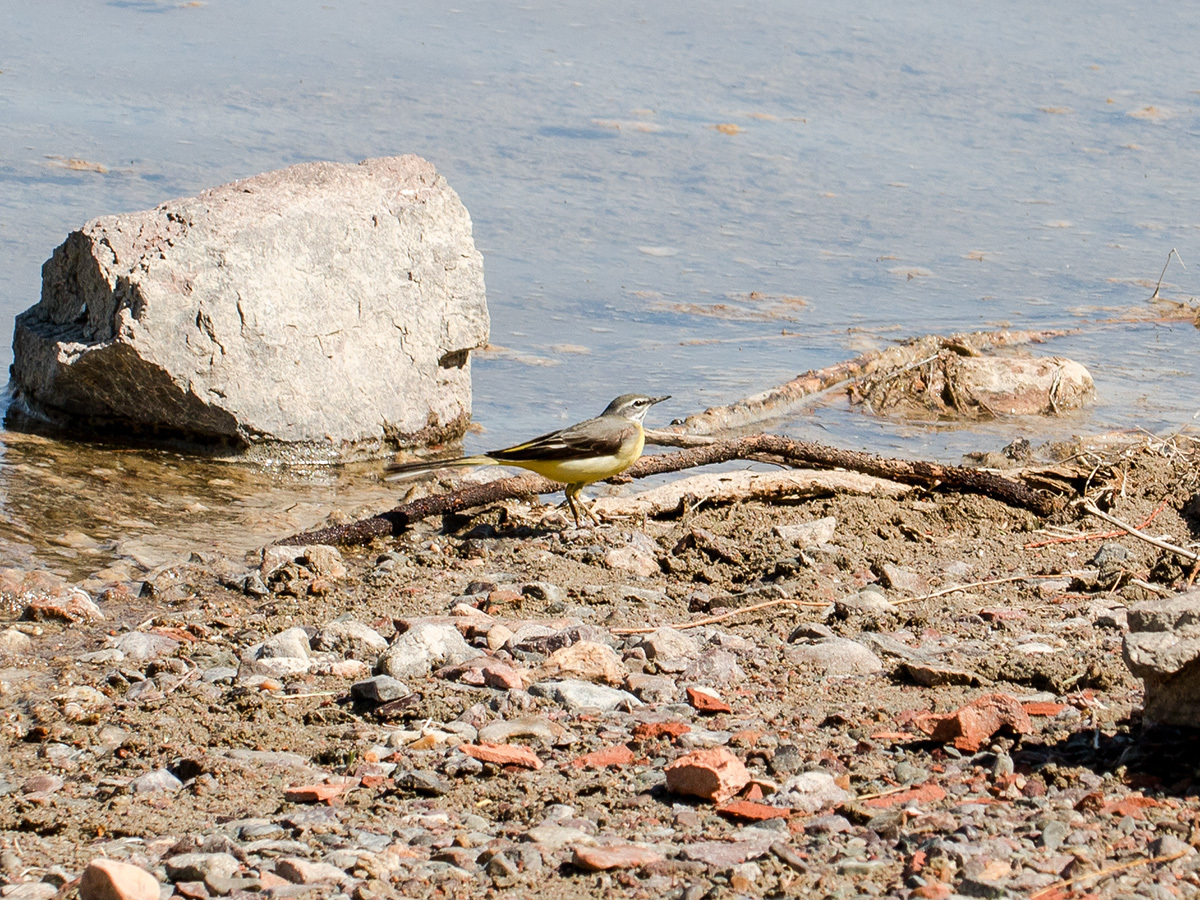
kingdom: Animalia
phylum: Chordata
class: Aves
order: Passeriformes
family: Motacillidae
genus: Motacilla
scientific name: Motacilla cinerea
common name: Grey wagtail
